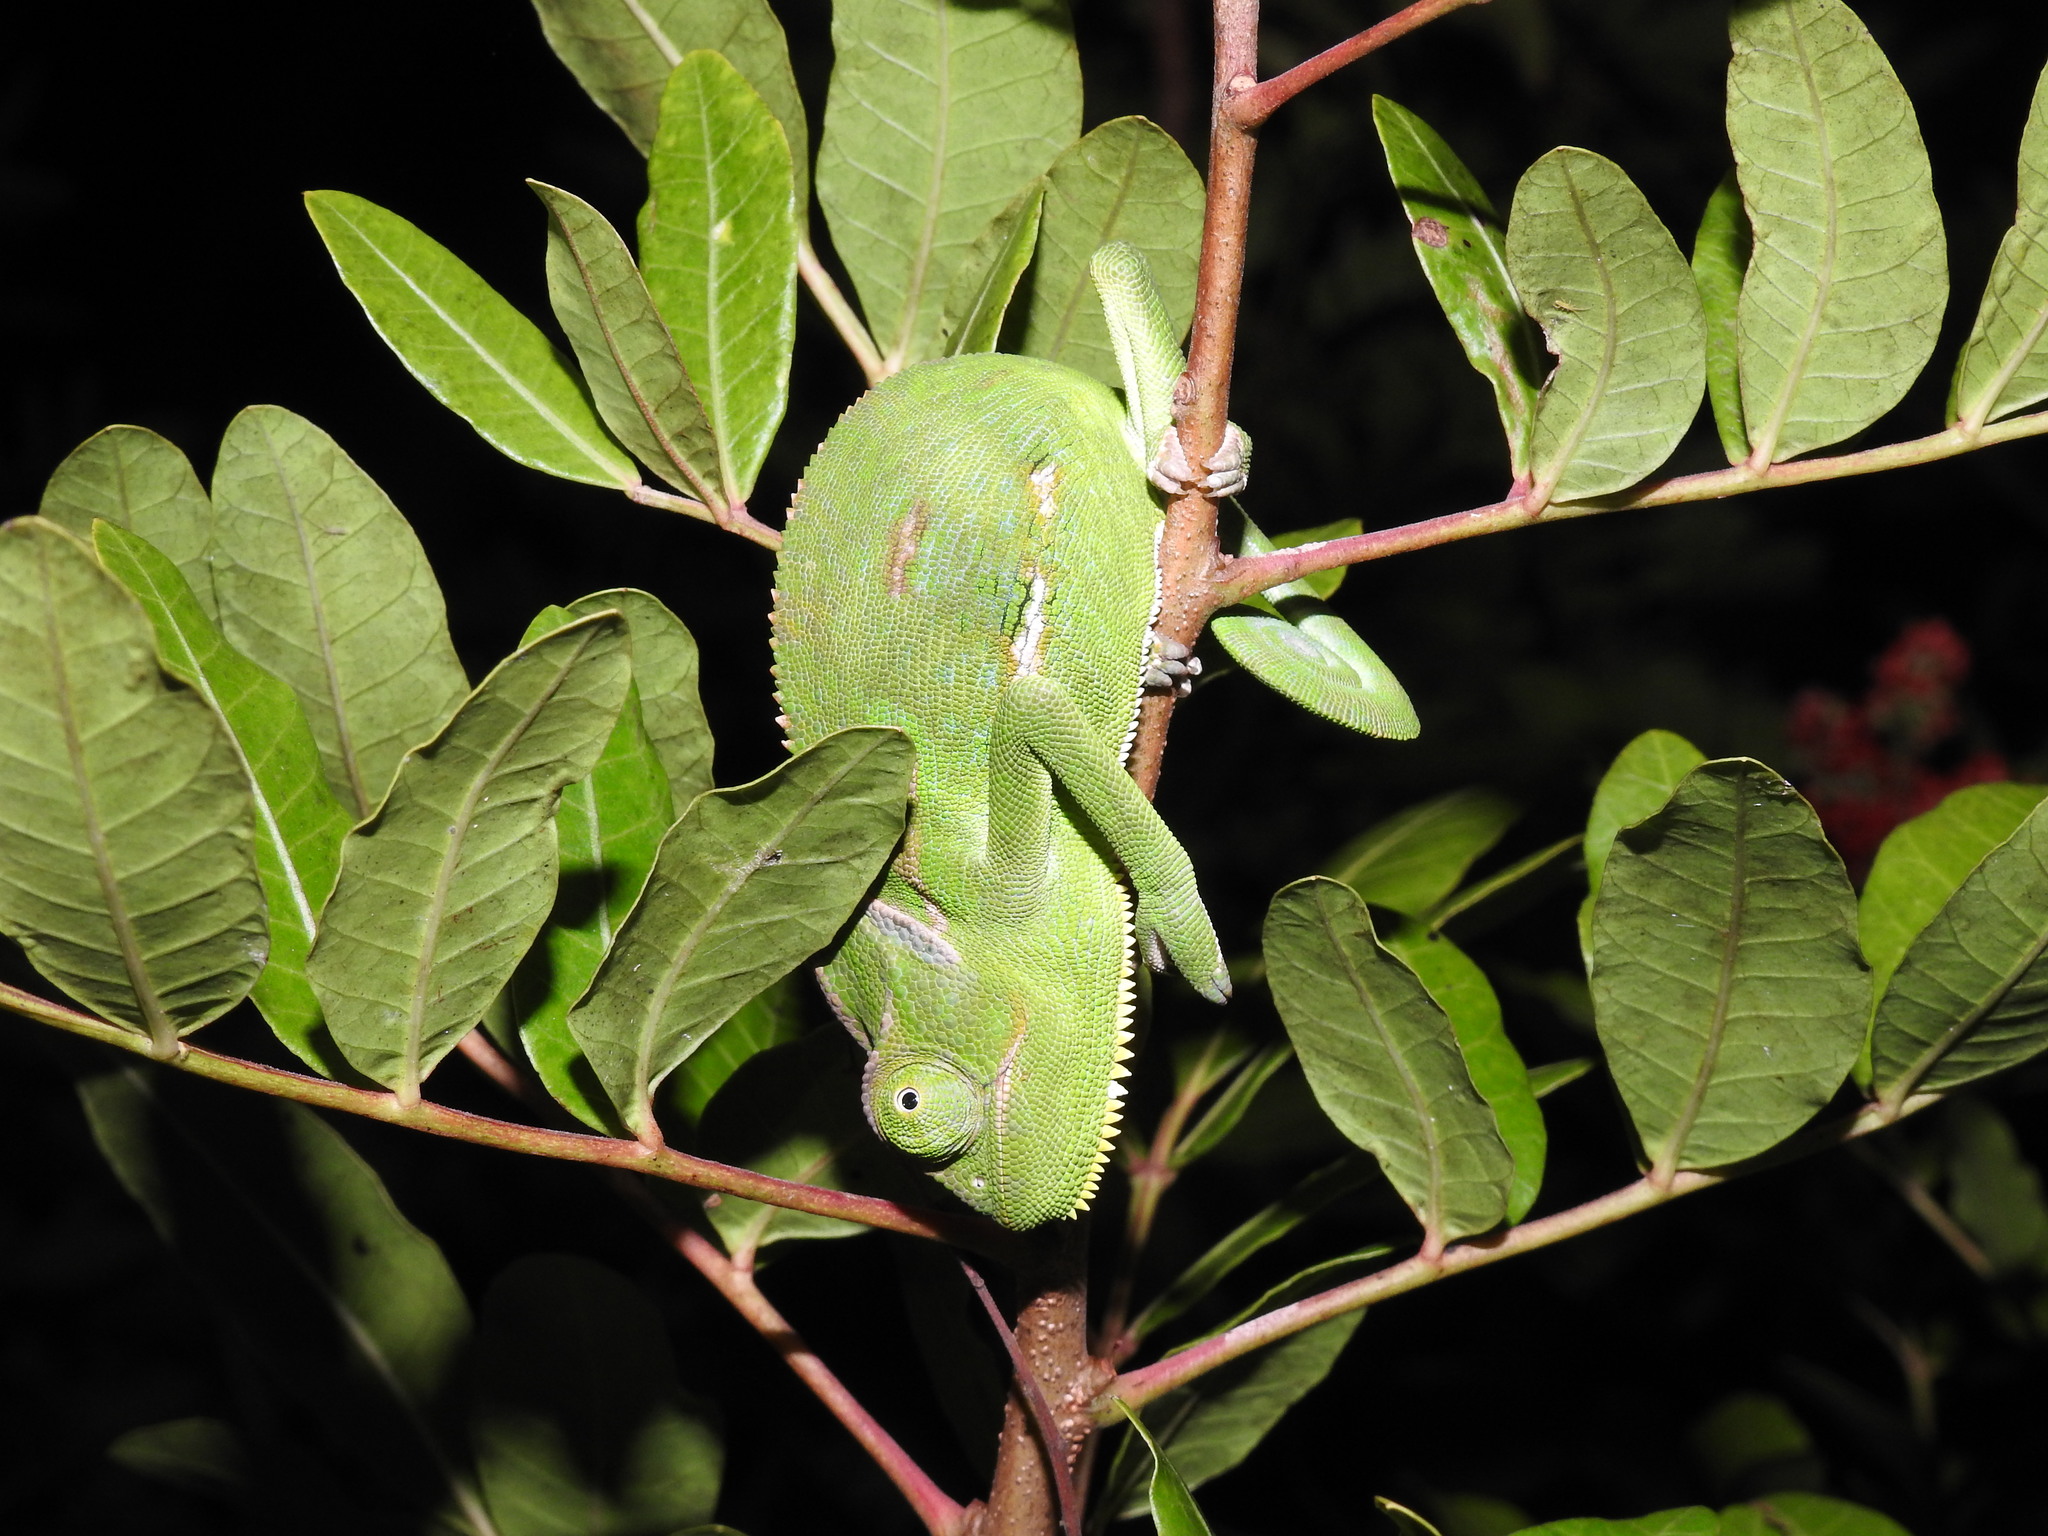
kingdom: Animalia
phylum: Chordata
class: Squamata
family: Chamaeleonidae
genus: Chamaeleo
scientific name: Chamaeleo calyptratus
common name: Veiled chameleon
